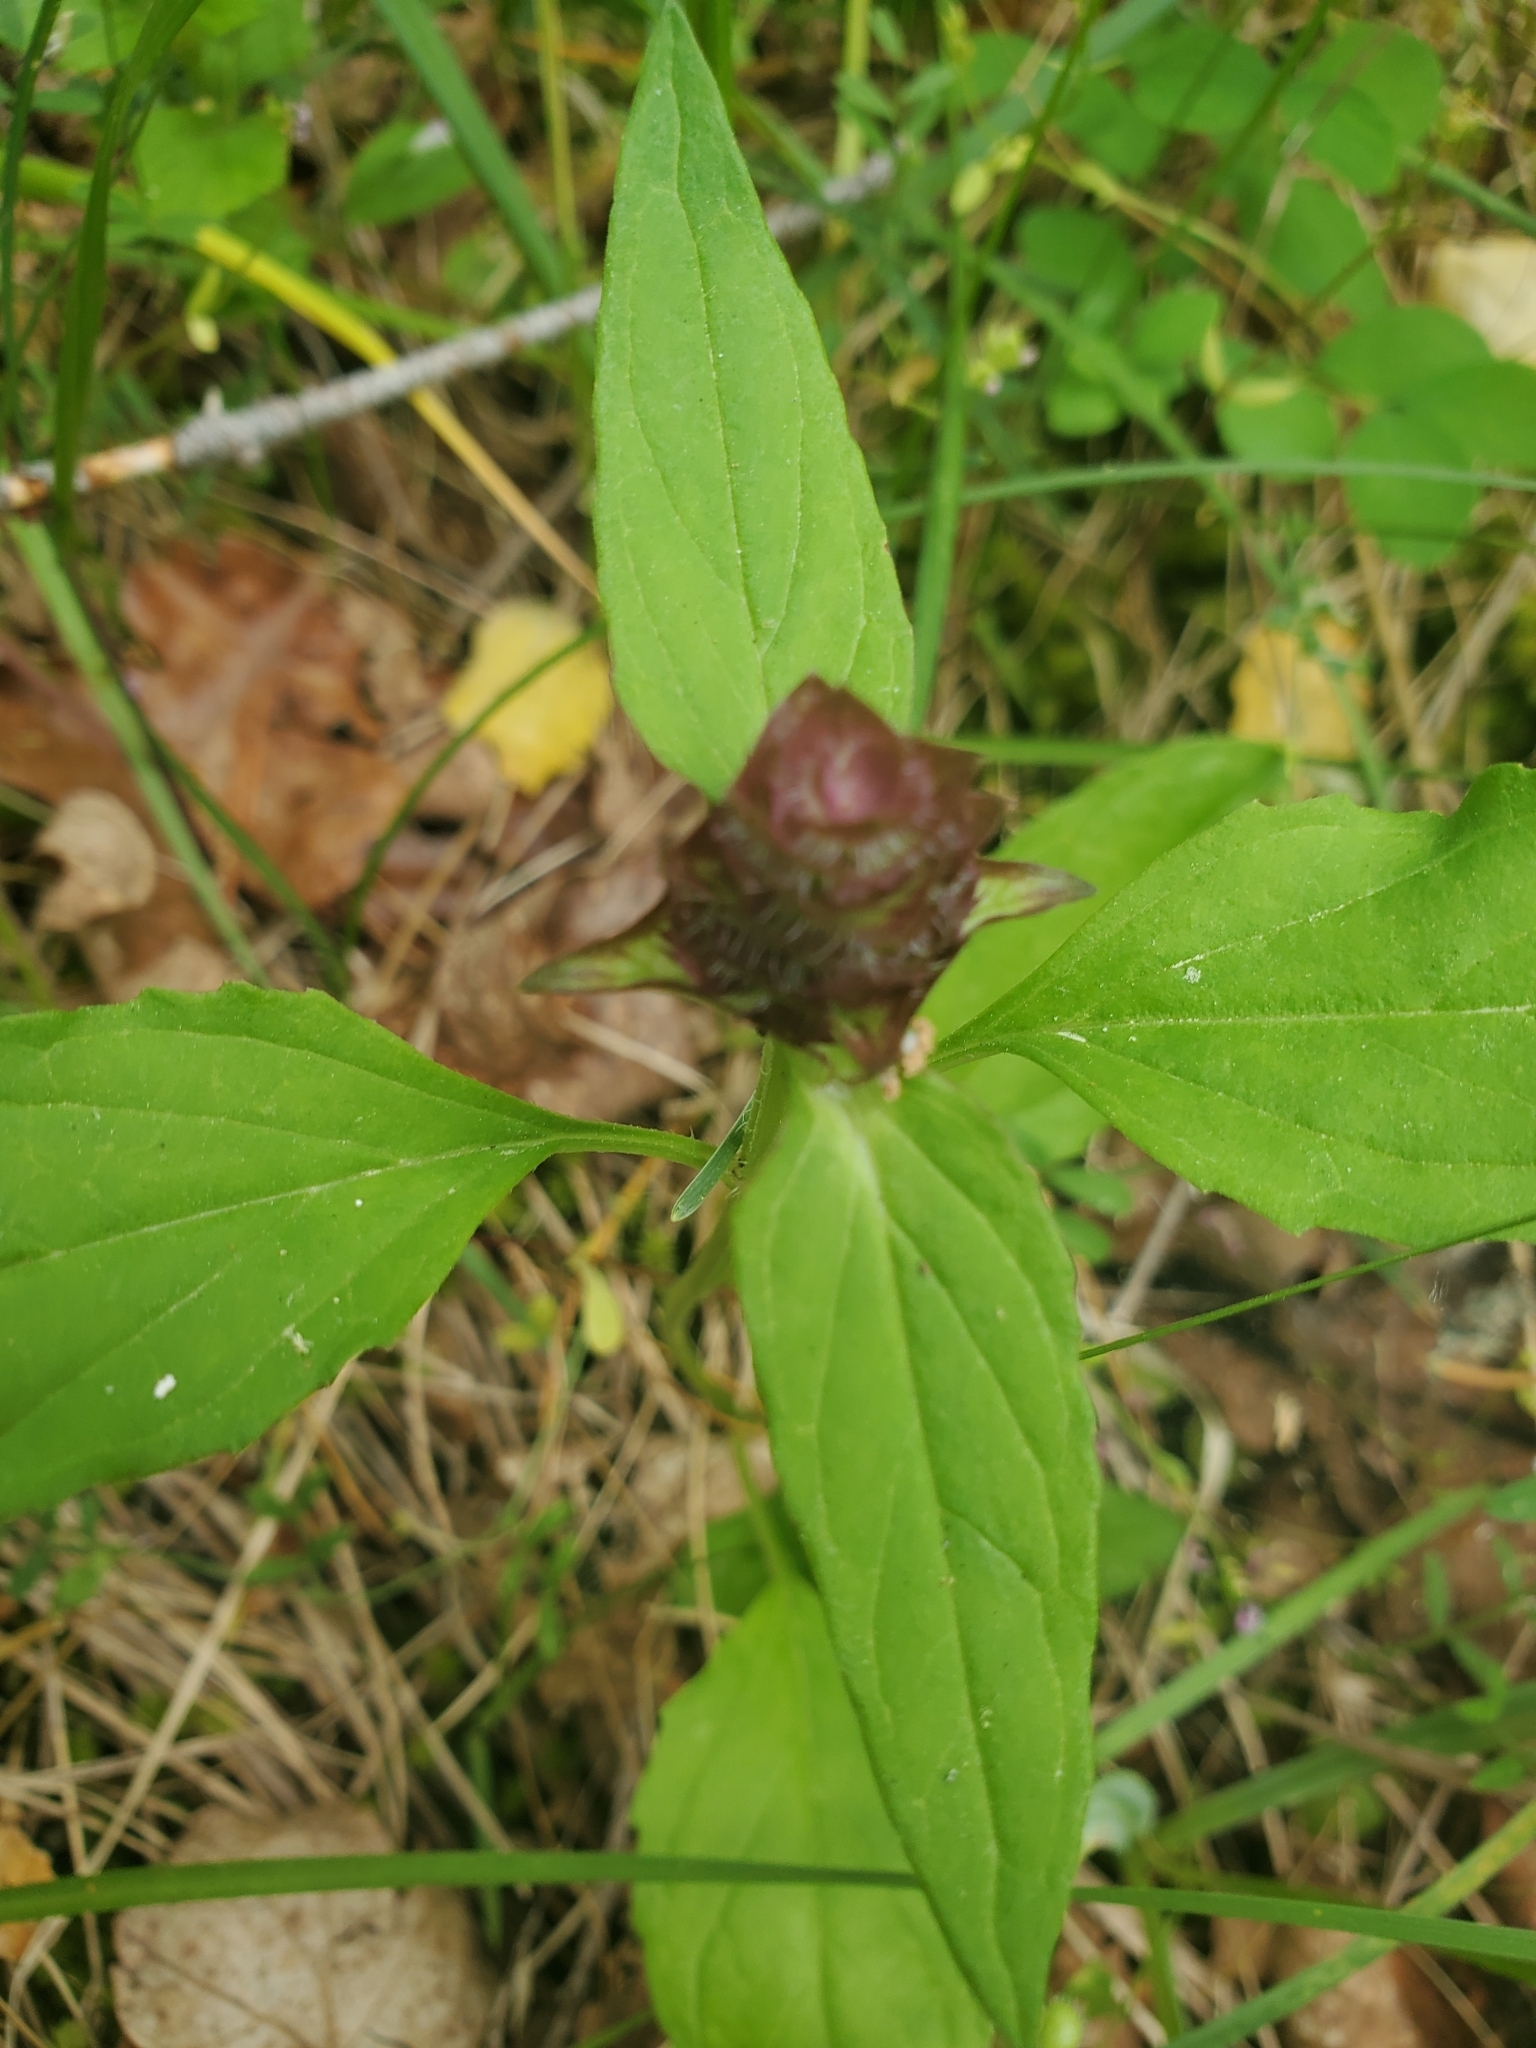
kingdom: Plantae
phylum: Tracheophyta
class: Magnoliopsida
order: Lamiales
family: Lamiaceae
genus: Prunella
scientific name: Prunella vulgaris
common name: Heal-all
